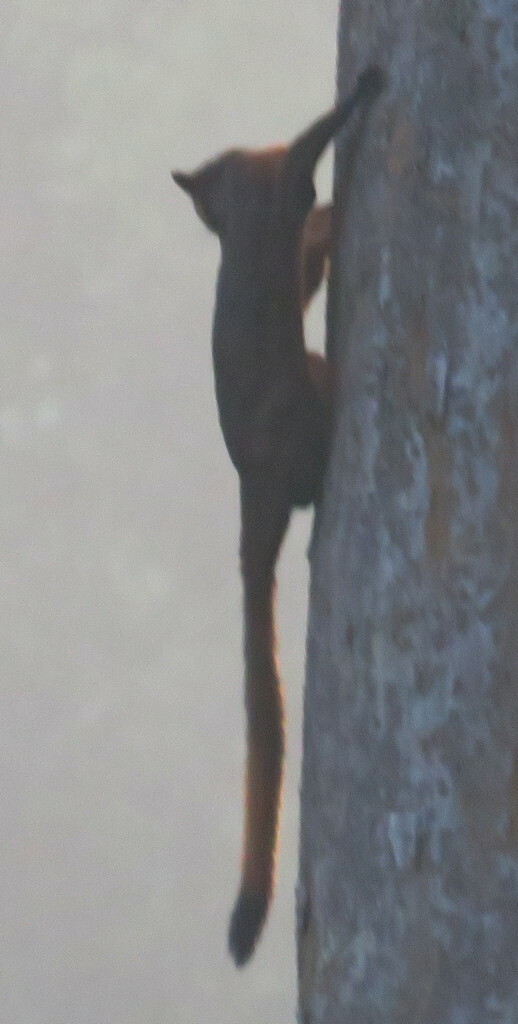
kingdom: Animalia
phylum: Chordata
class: Mammalia
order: Rodentia
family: Sciuridae
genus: Petaurista
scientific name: Petaurista petaurista
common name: Red giant flying squirrel
